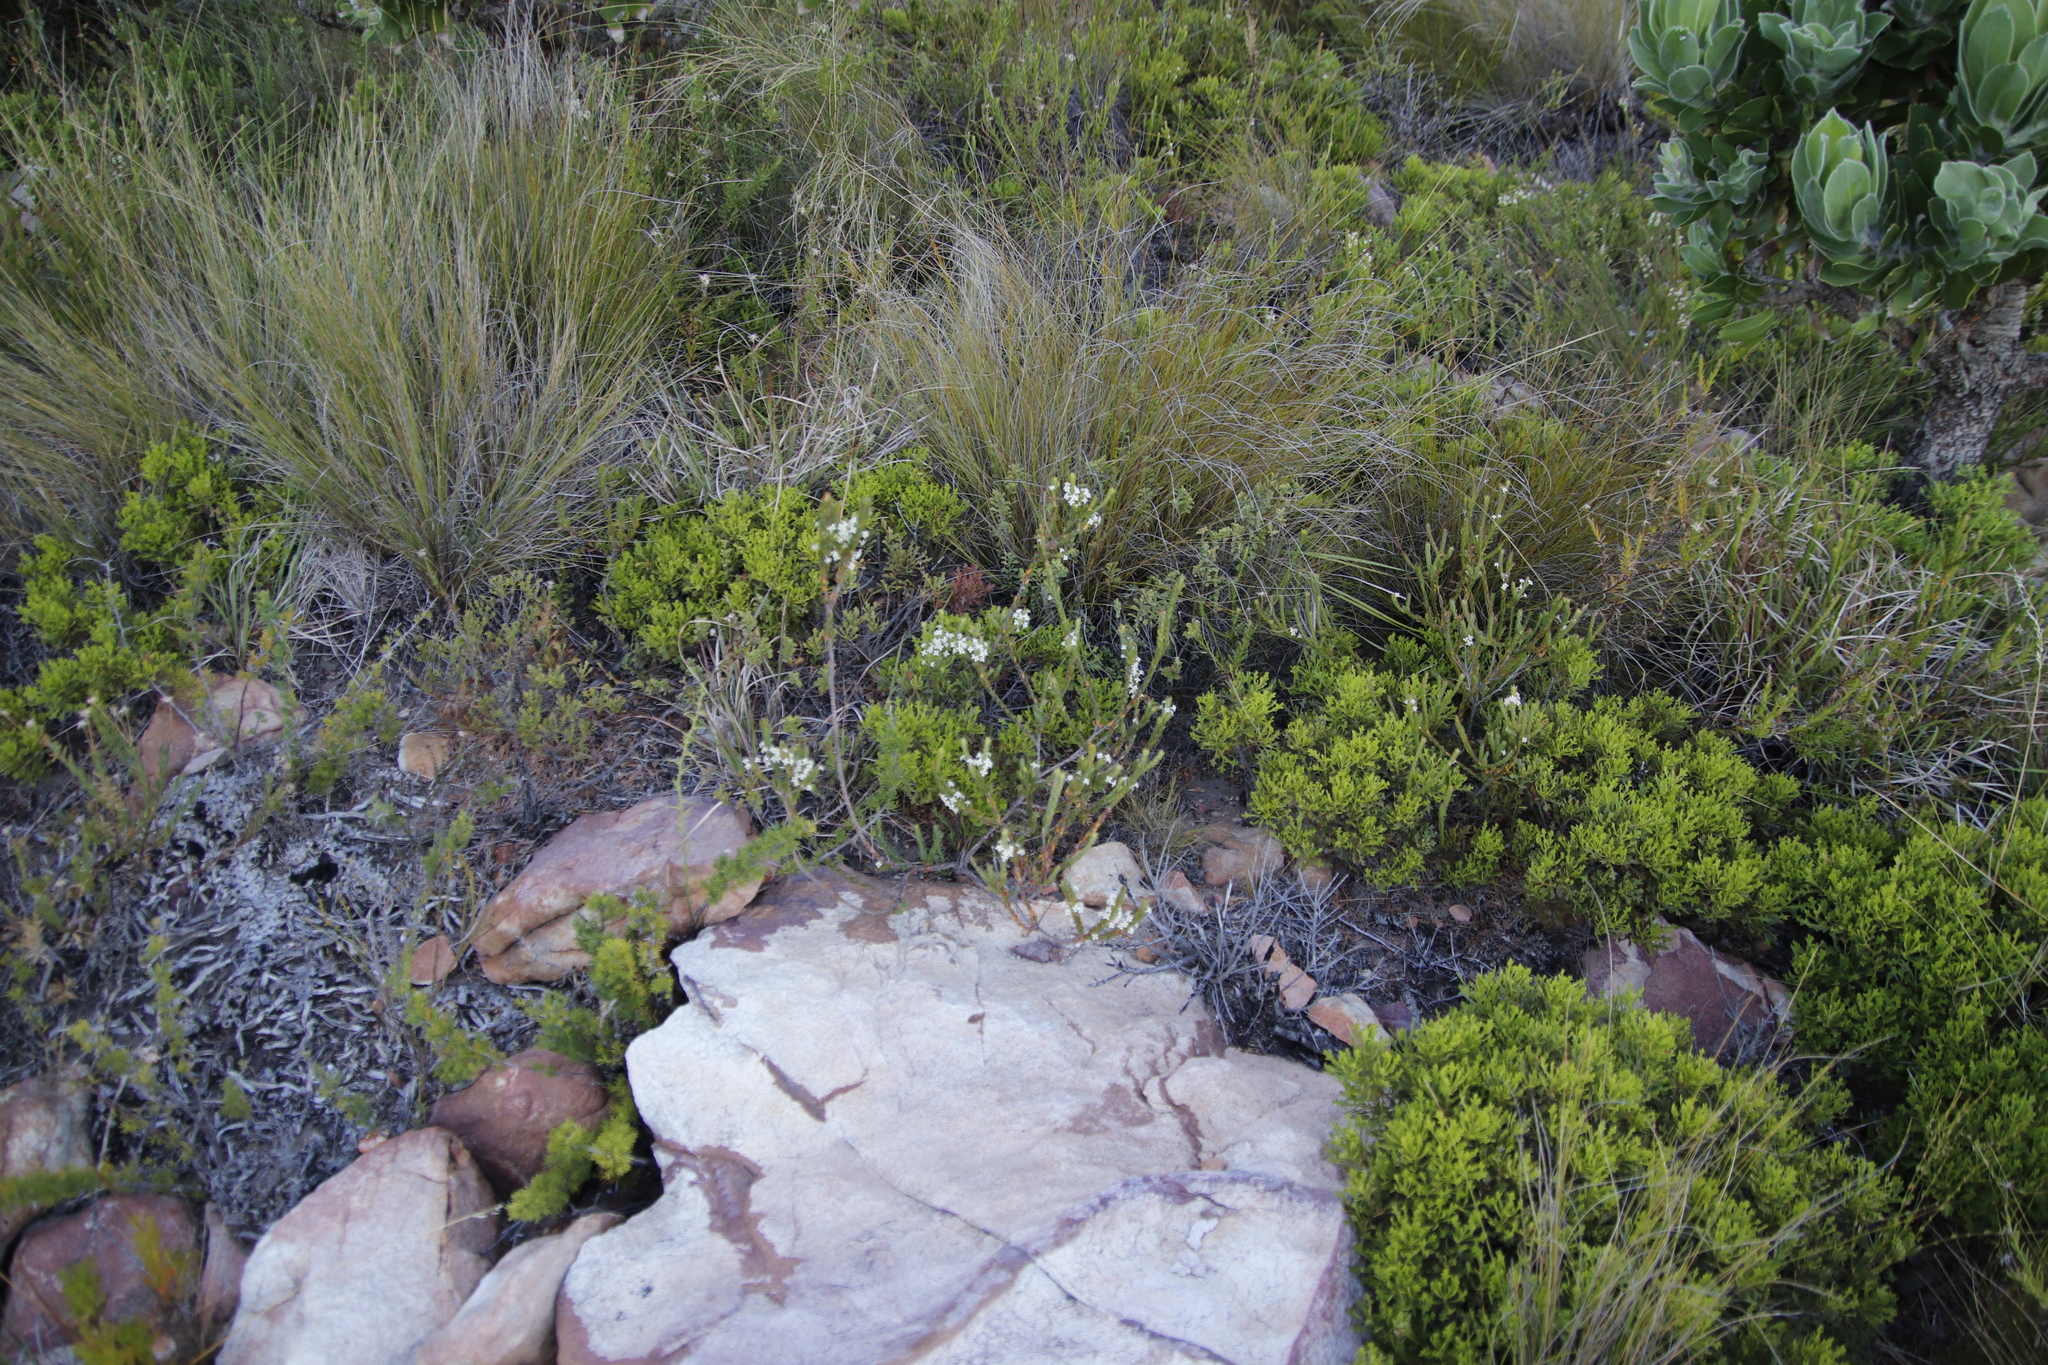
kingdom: Plantae
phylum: Tracheophyta
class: Magnoliopsida
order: Fagales
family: Myricaceae
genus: Morella
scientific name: Morella quercifolia
